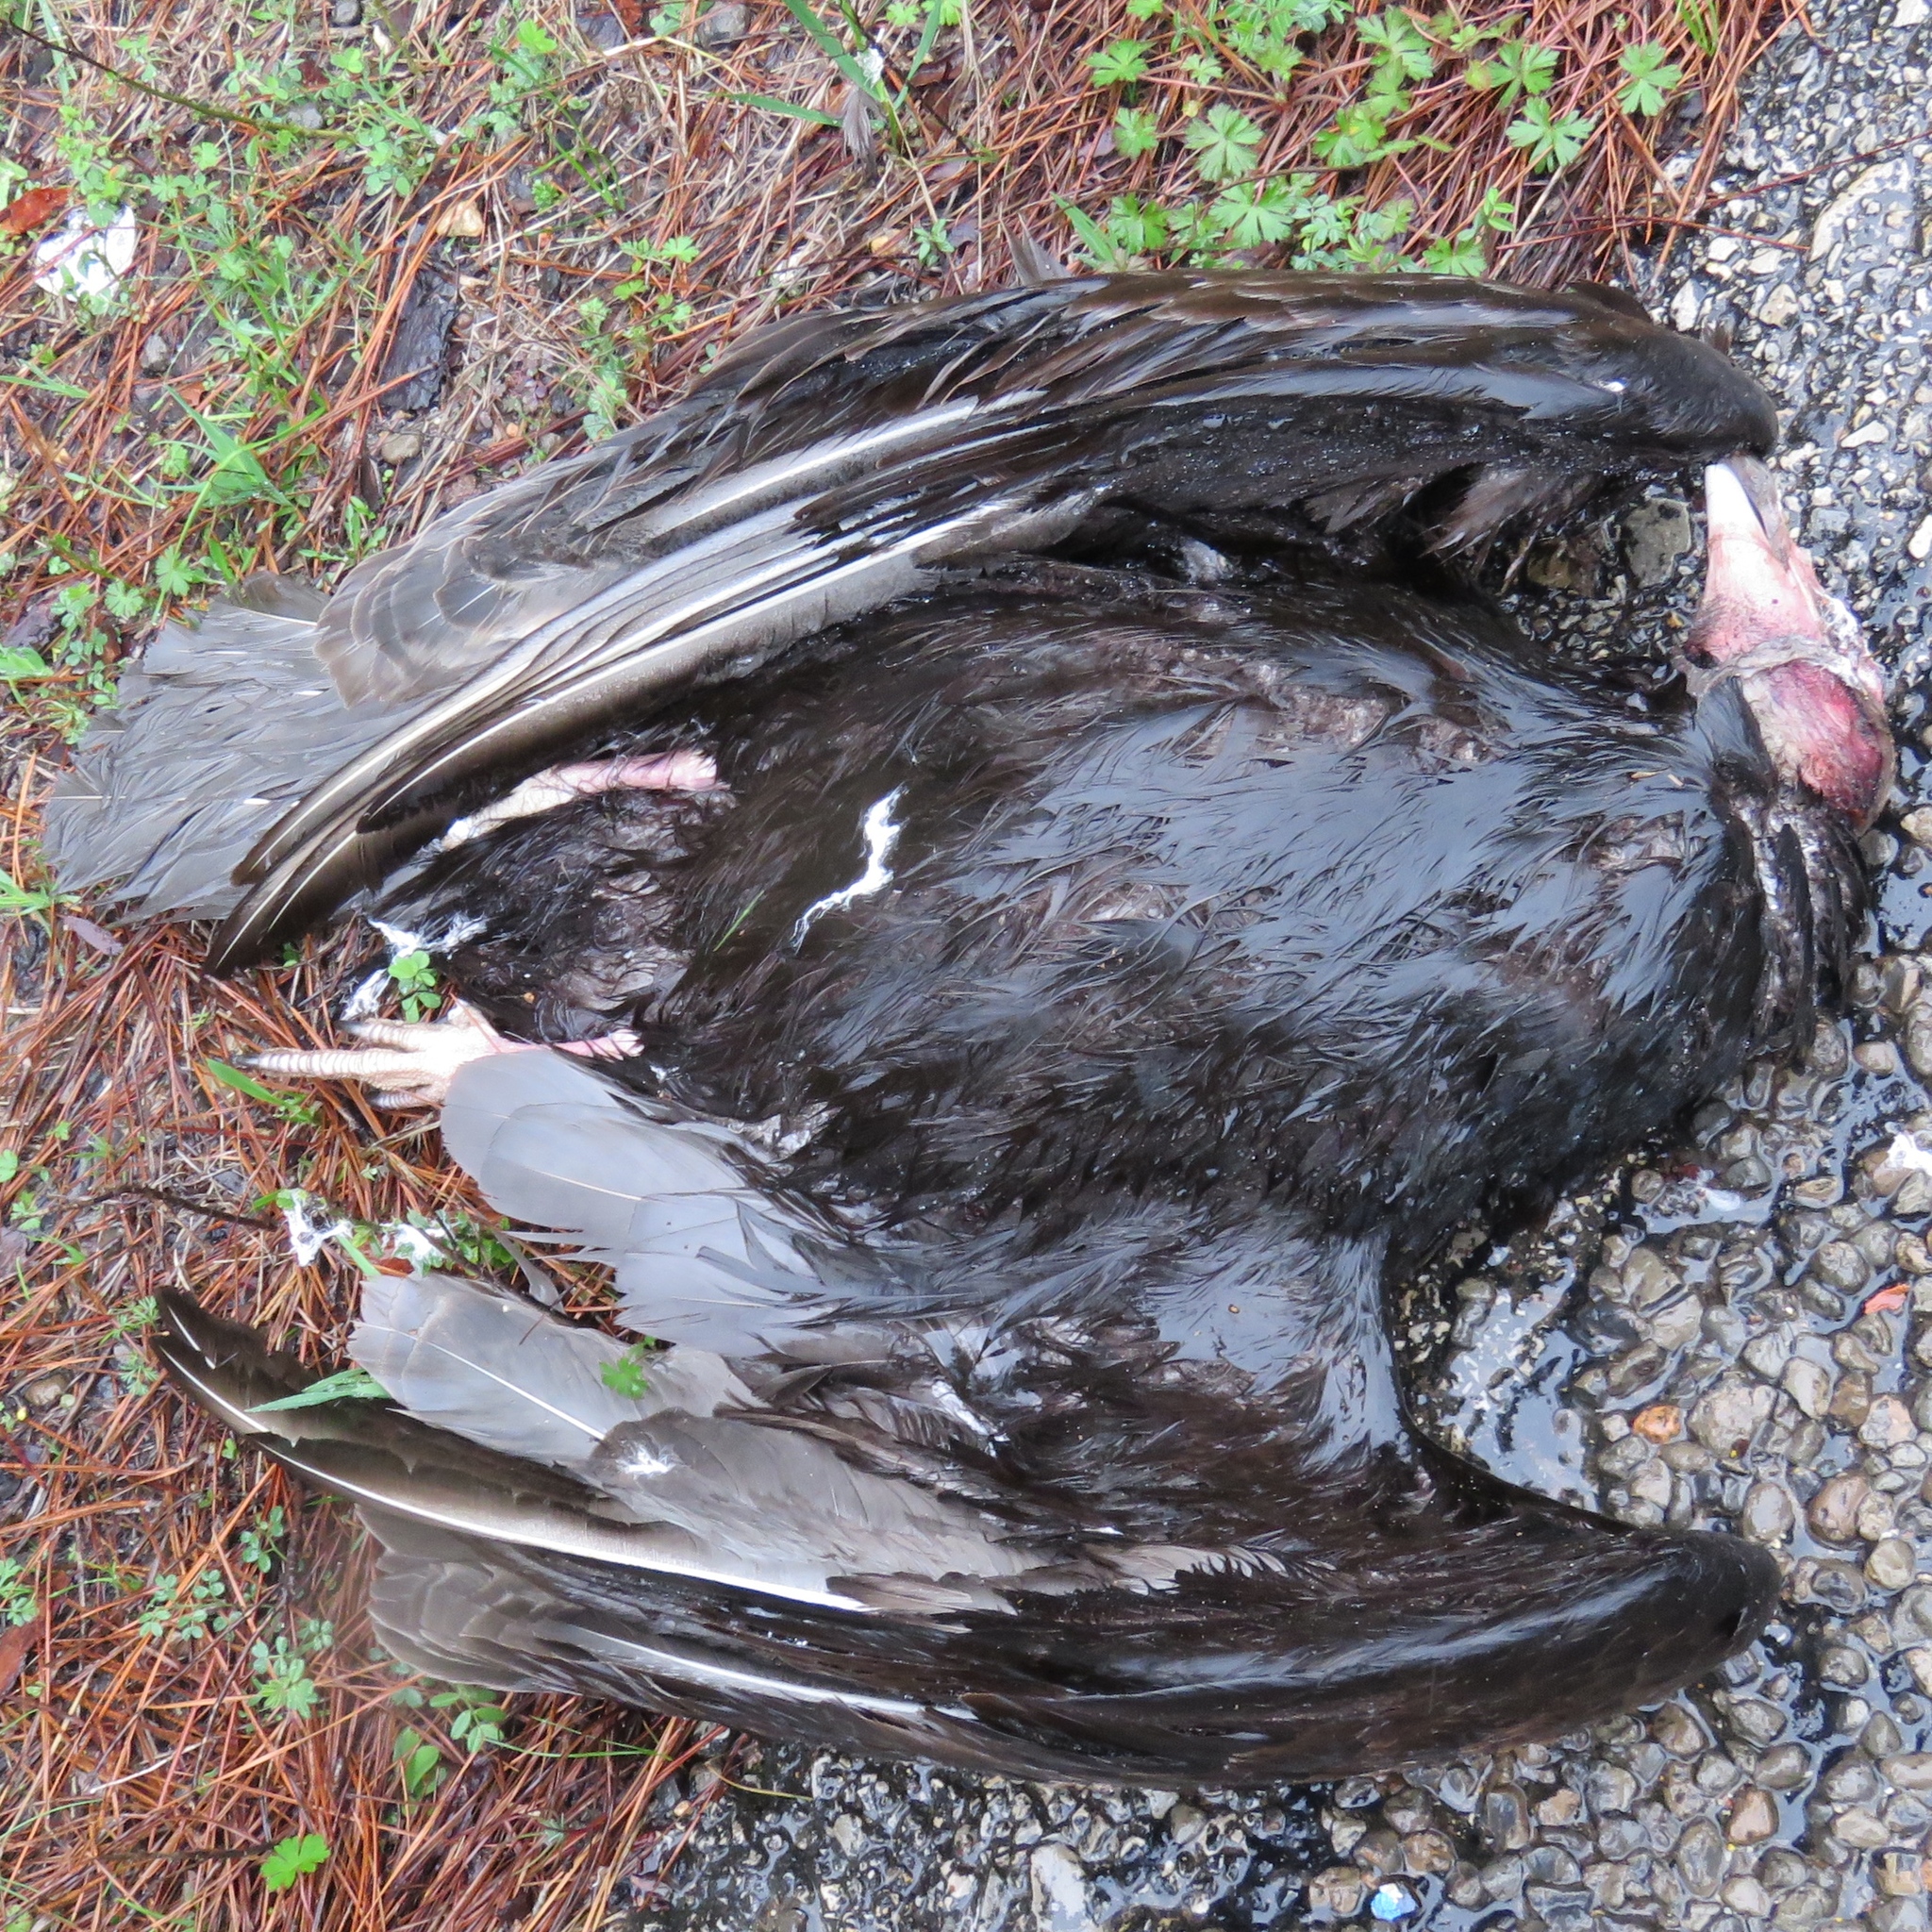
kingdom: Animalia
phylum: Chordata
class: Aves
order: Accipitriformes
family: Cathartidae
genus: Cathartes
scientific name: Cathartes aura
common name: Turkey vulture
